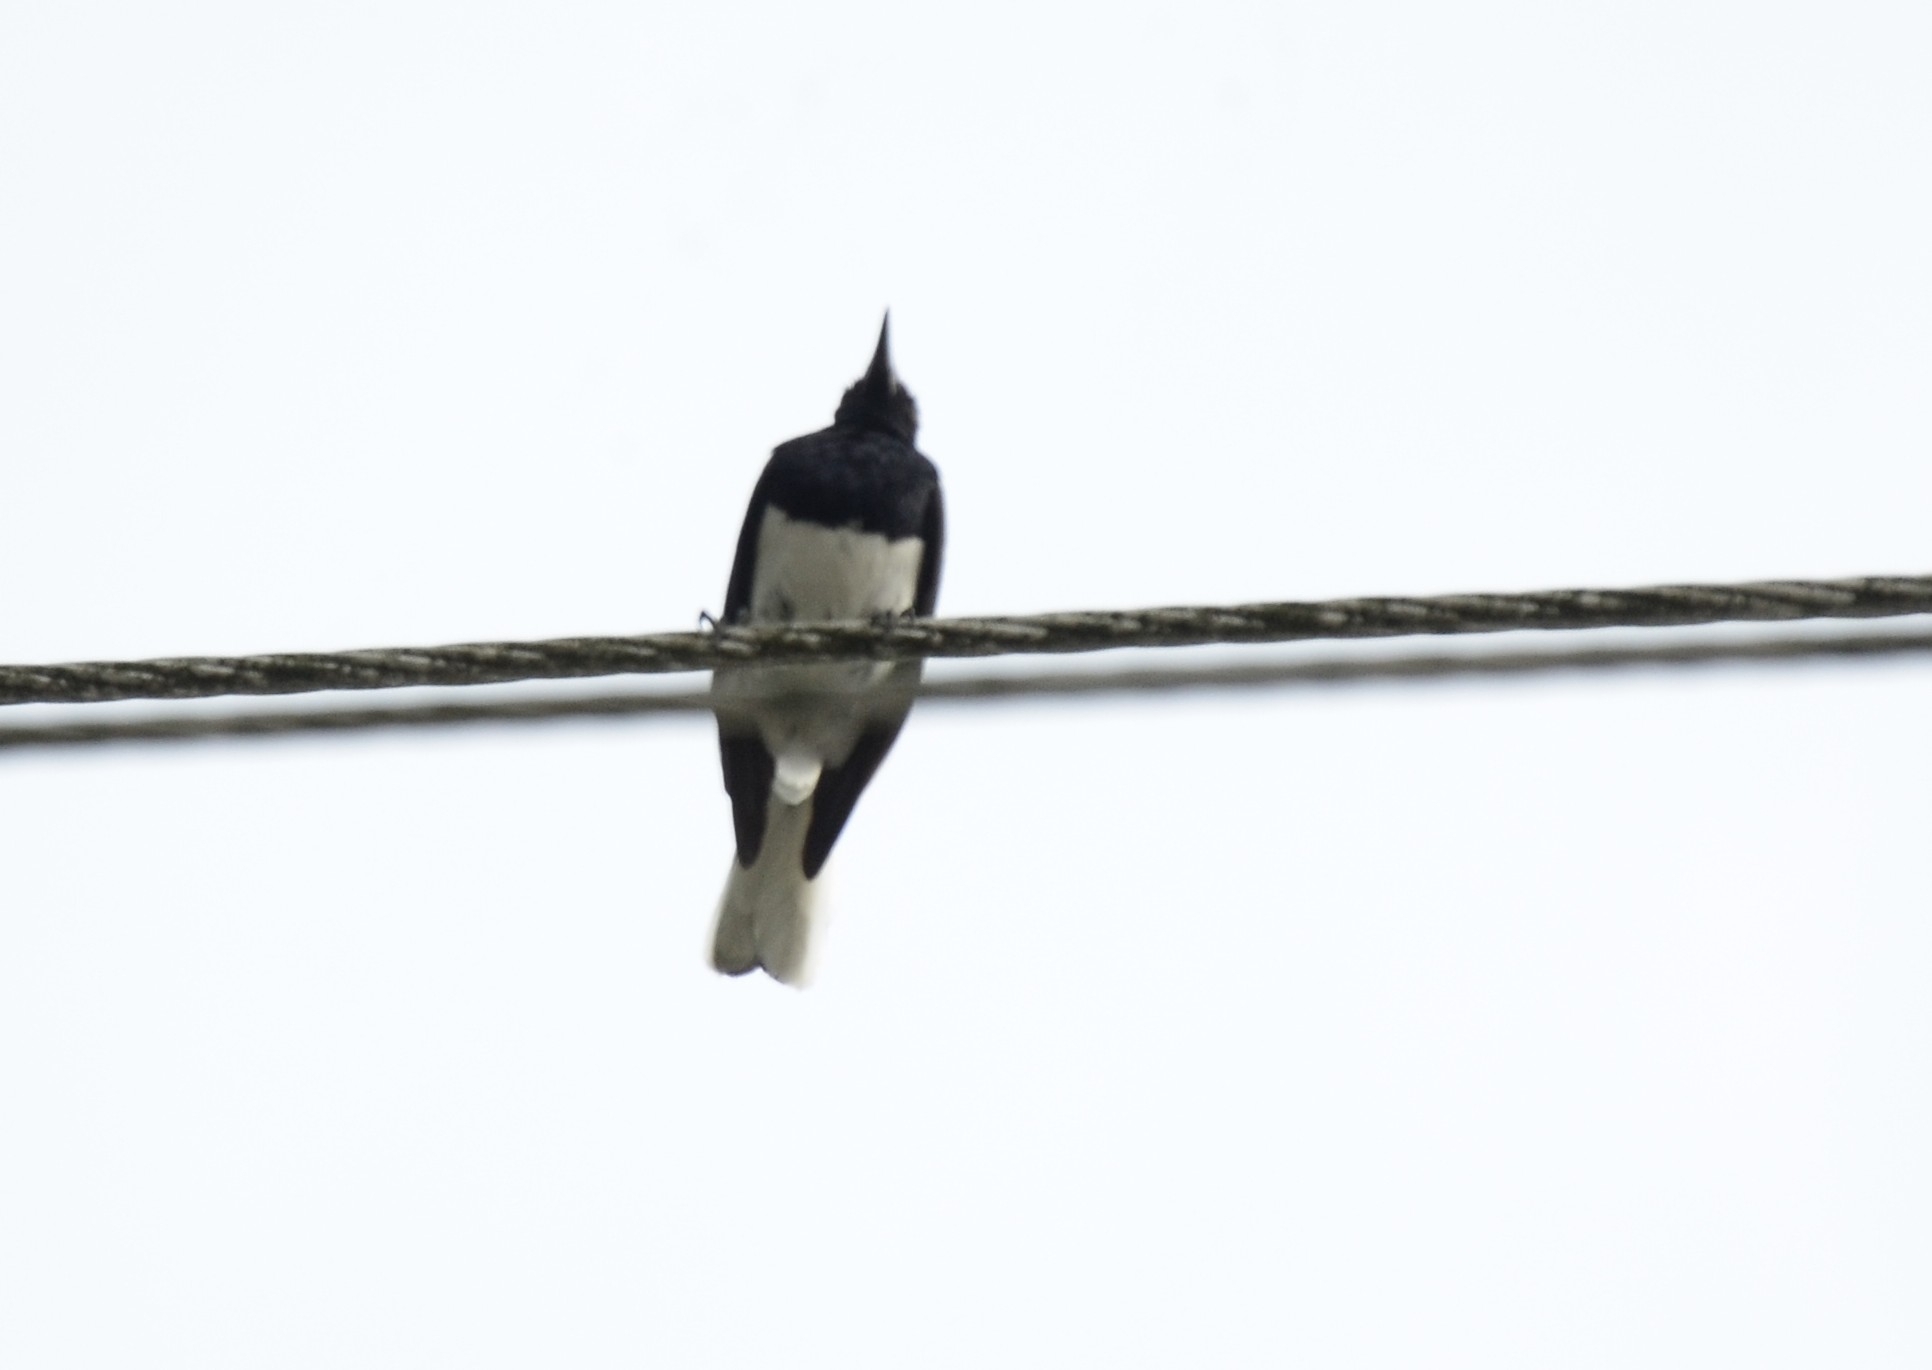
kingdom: Animalia
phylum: Chordata
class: Aves
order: Passeriformes
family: Muscicapidae
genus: Copsychus
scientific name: Copsychus saularis
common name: Oriental magpie-robin
